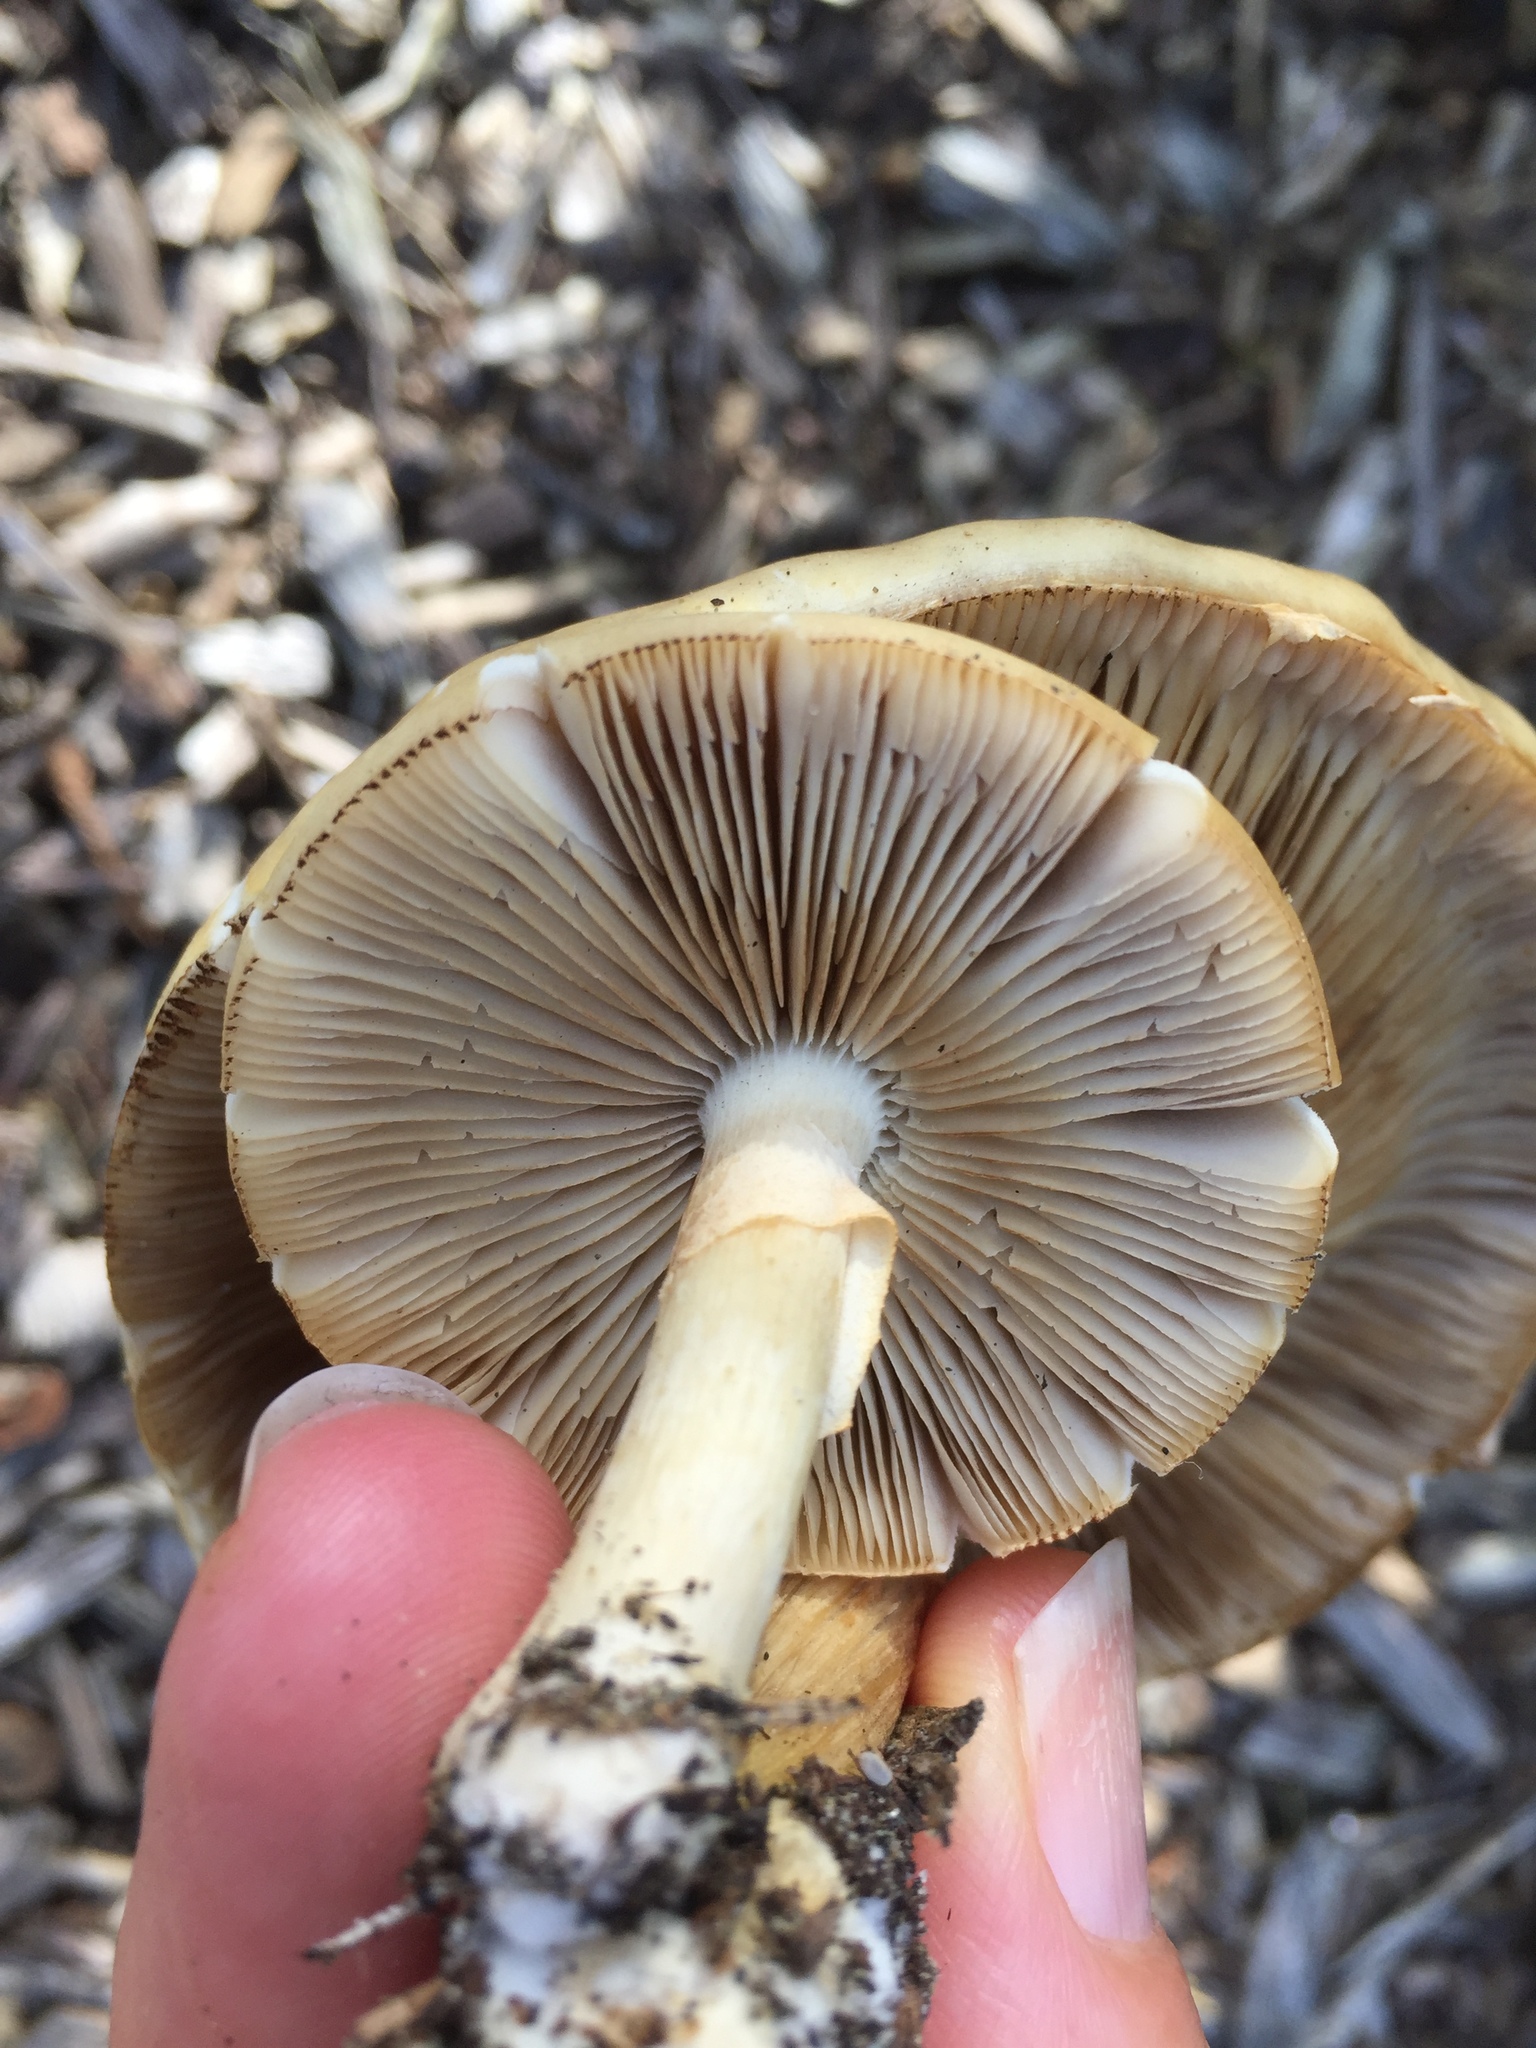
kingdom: Fungi
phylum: Basidiomycota
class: Agaricomycetes
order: Agaricales
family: Strophariaceae
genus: Agrocybe
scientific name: Agrocybe praecox
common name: Spring fieldcap
